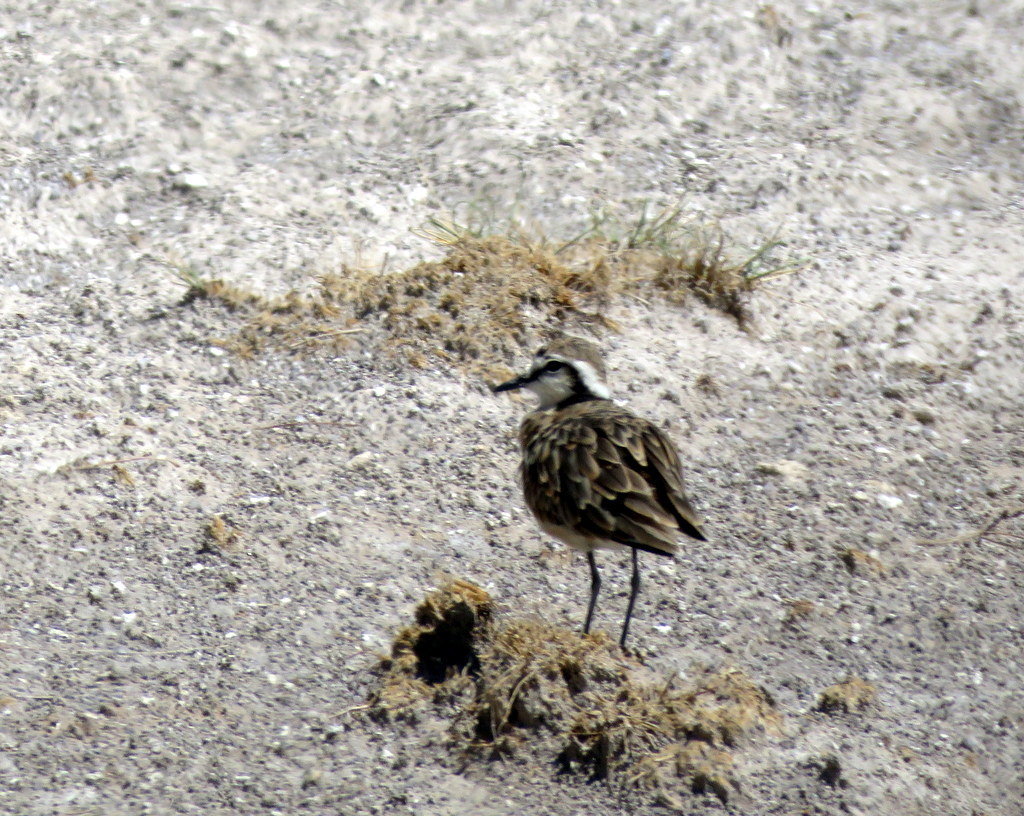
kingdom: Animalia
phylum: Chordata
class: Aves
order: Charadriiformes
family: Charadriidae
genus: Anarhynchus
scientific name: Anarhynchus
